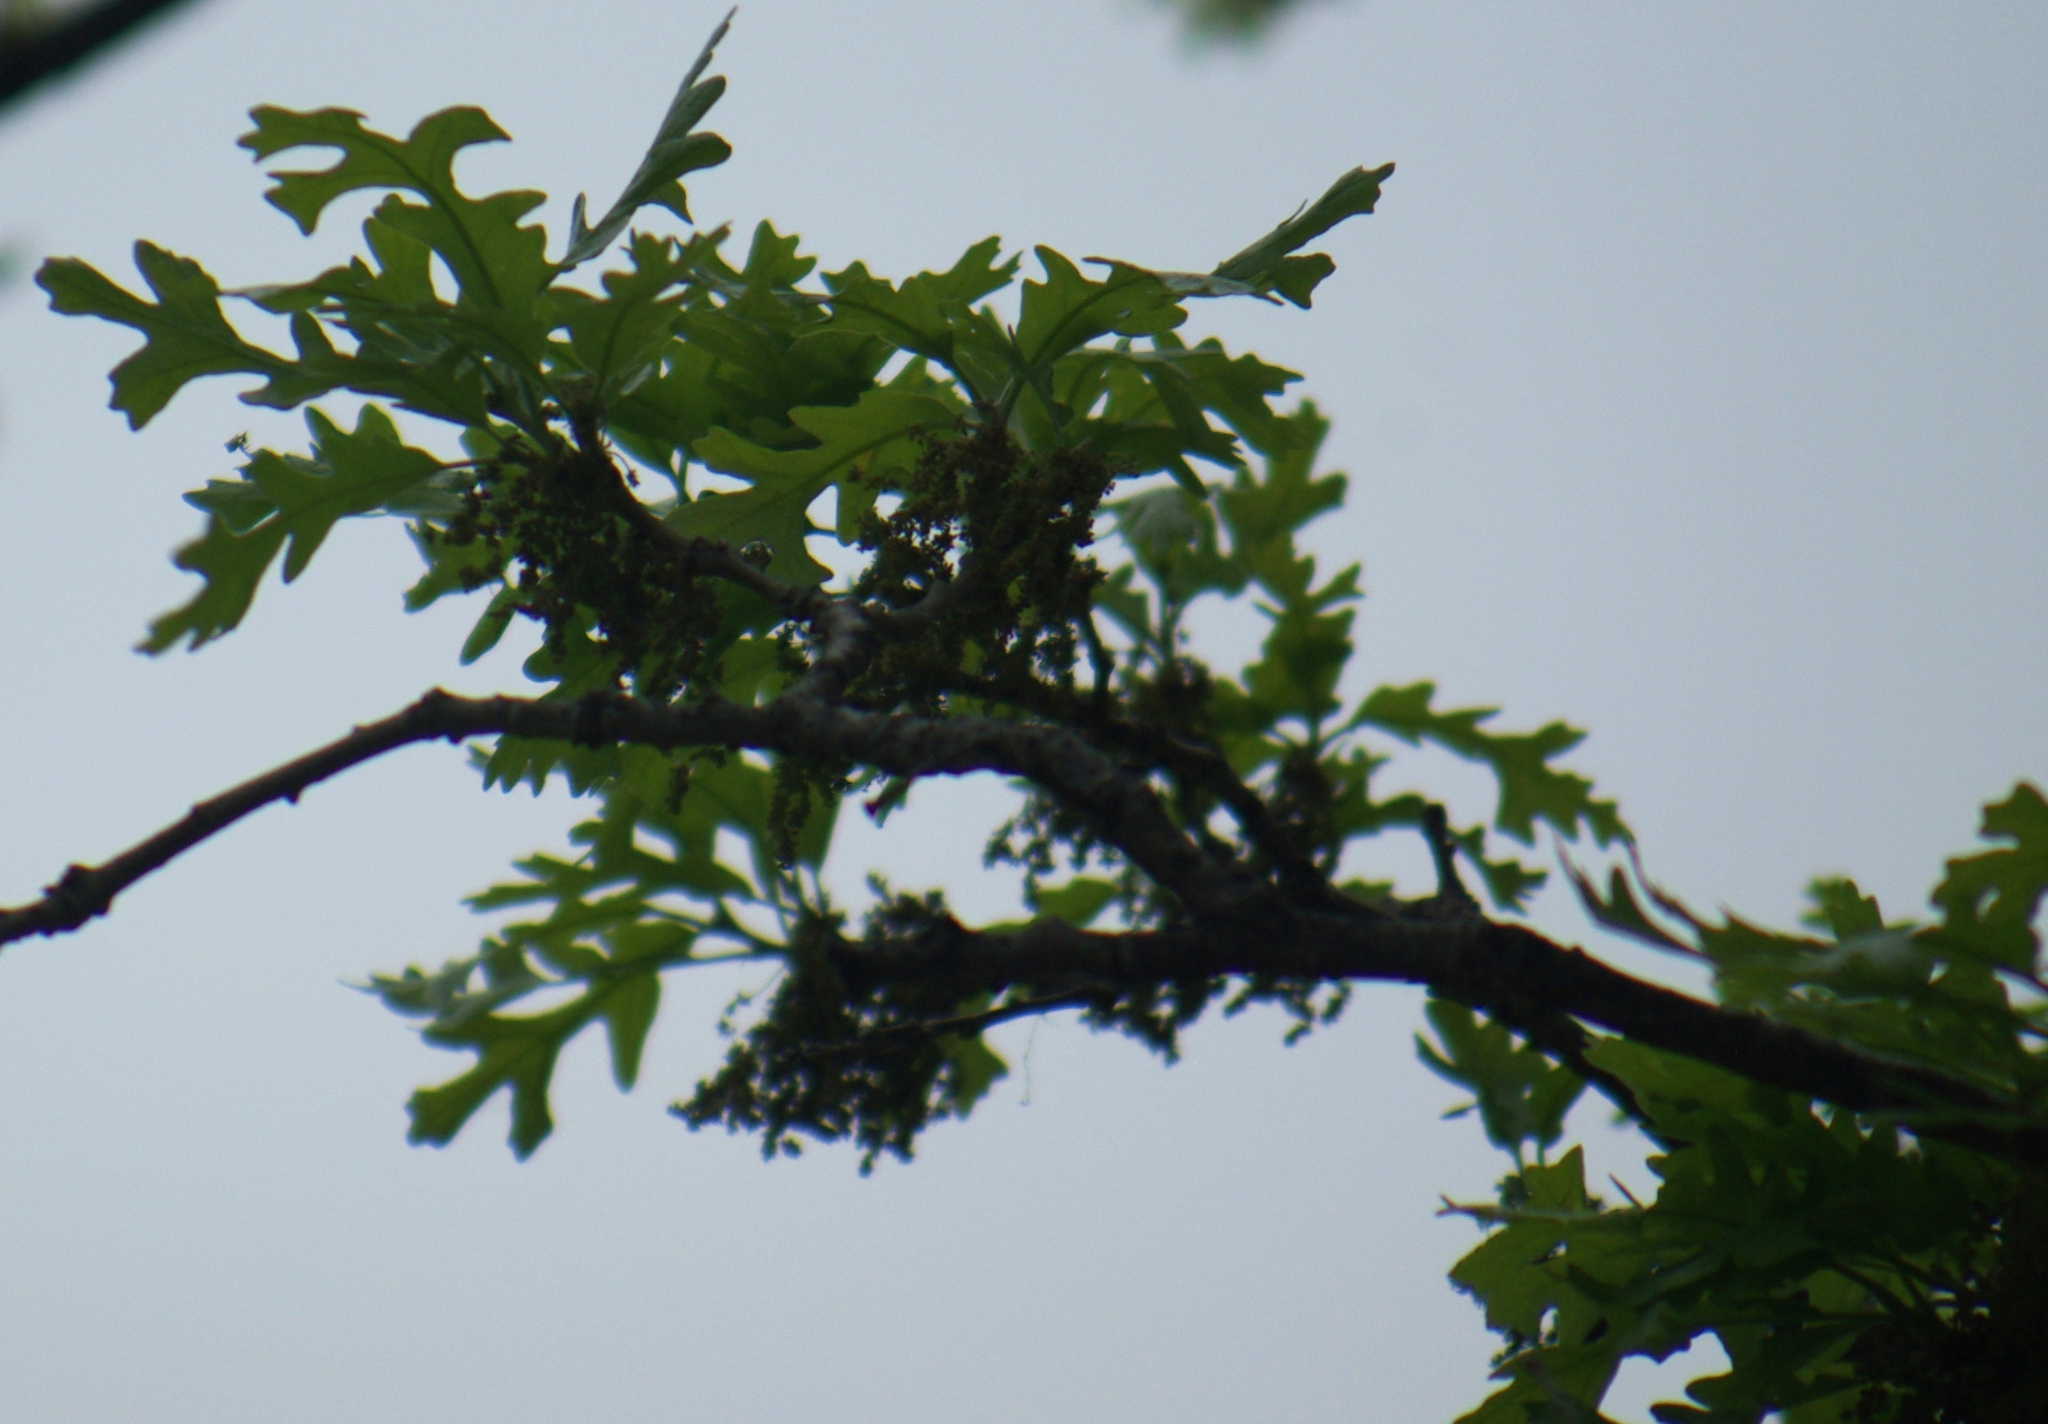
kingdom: Plantae
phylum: Tracheophyta
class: Magnoliopsida
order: Fagales
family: Fagaceae
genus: Quercus
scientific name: Quercus macrocarpa
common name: Bur oak
